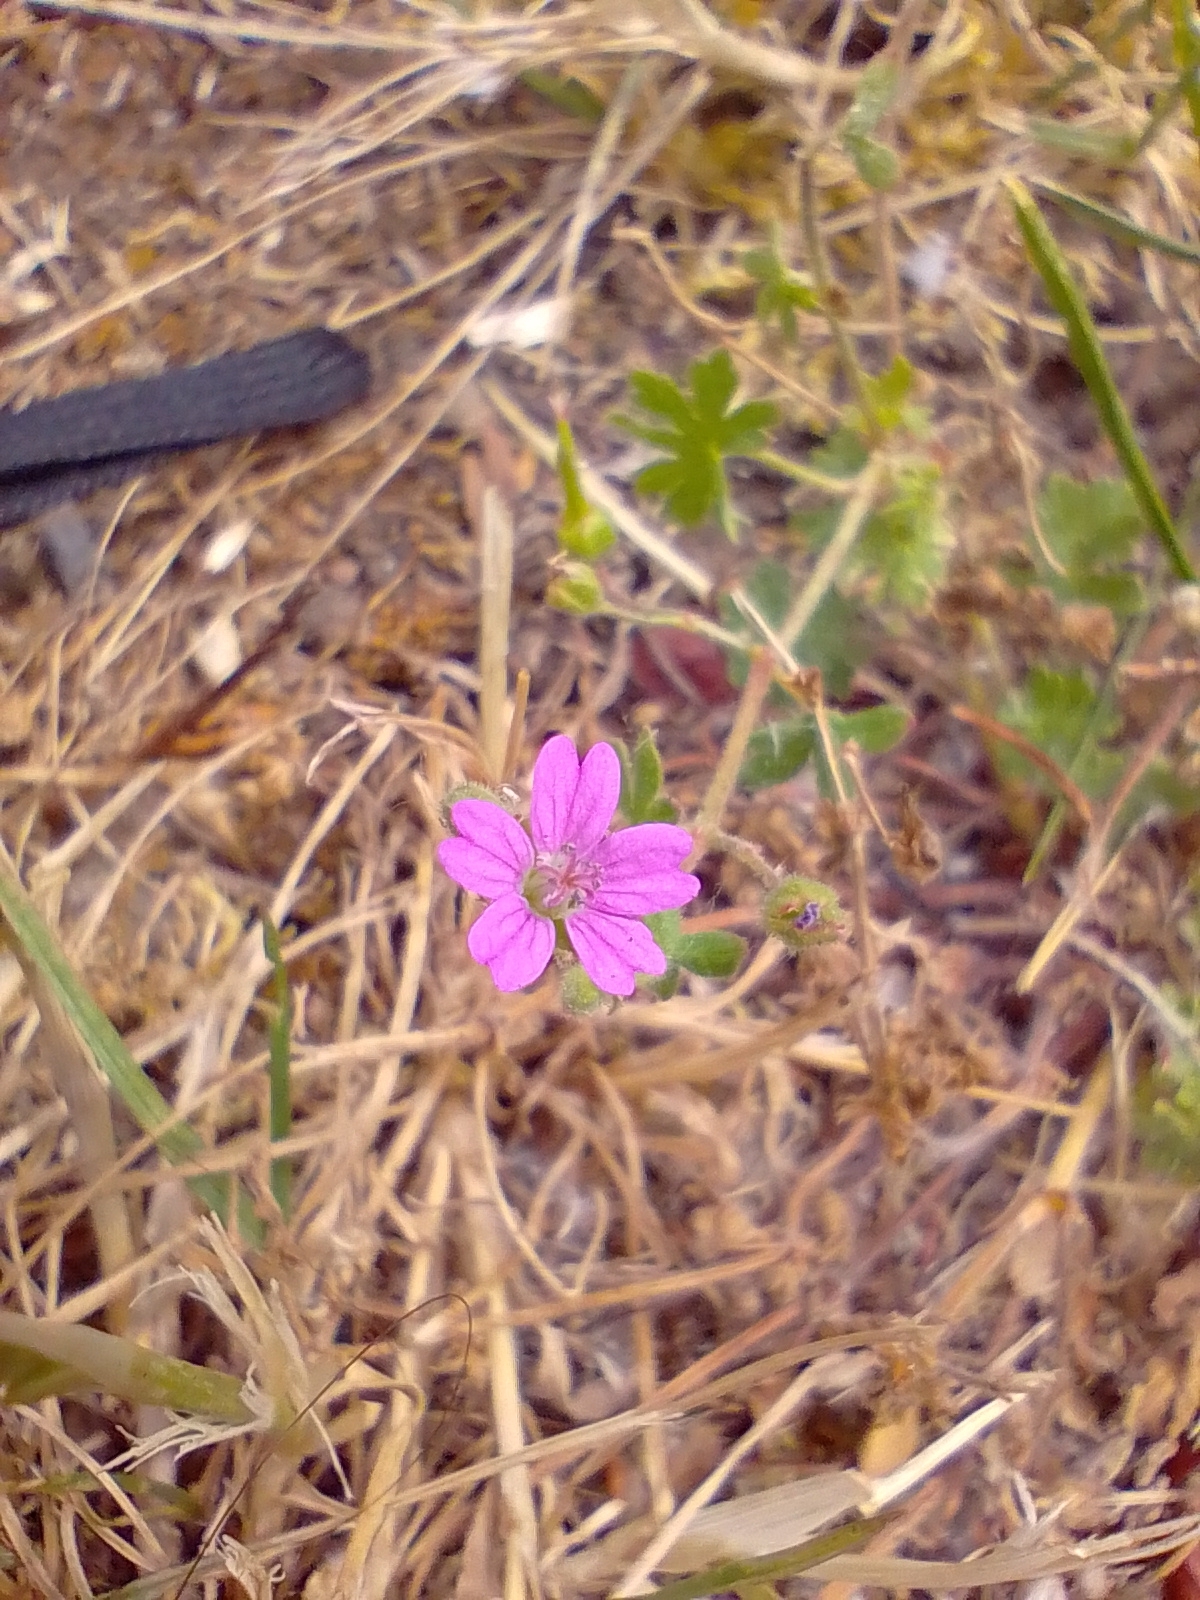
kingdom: Plantae
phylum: Tracheophyta
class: Magnoliopsida
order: Geraniales
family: Geraniaceae
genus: Geranium
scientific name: Geranium molle
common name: Dove's-foot crane's-bill
